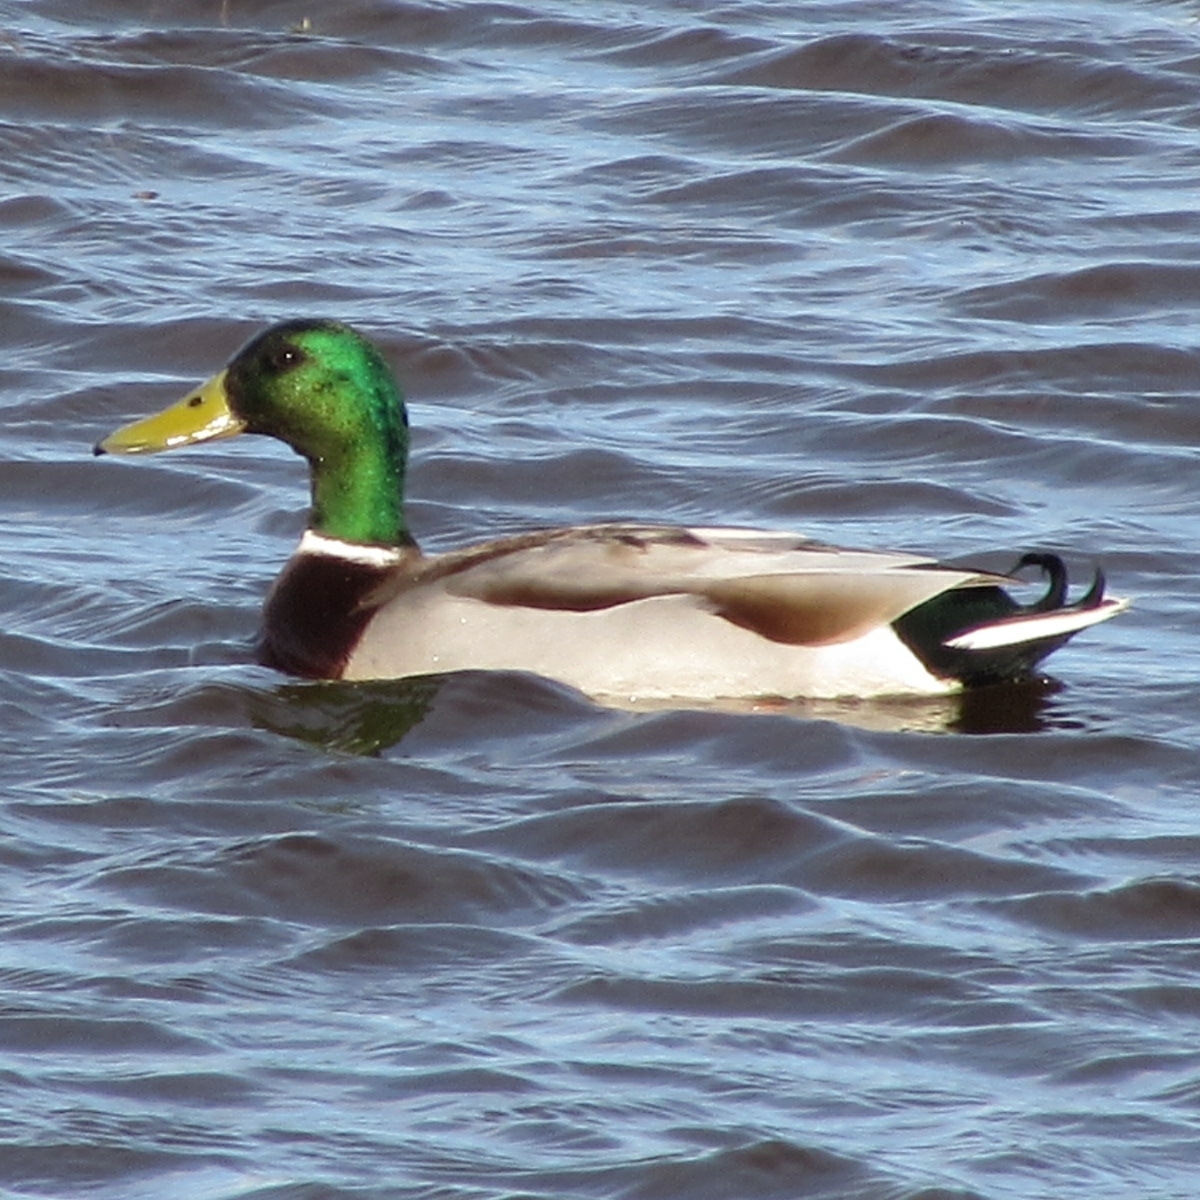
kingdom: Animalia
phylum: Chordata
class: Aves
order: Anseriformes
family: Anatidae
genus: Anas
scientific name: Anas platyrhynchos
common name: Mallard
